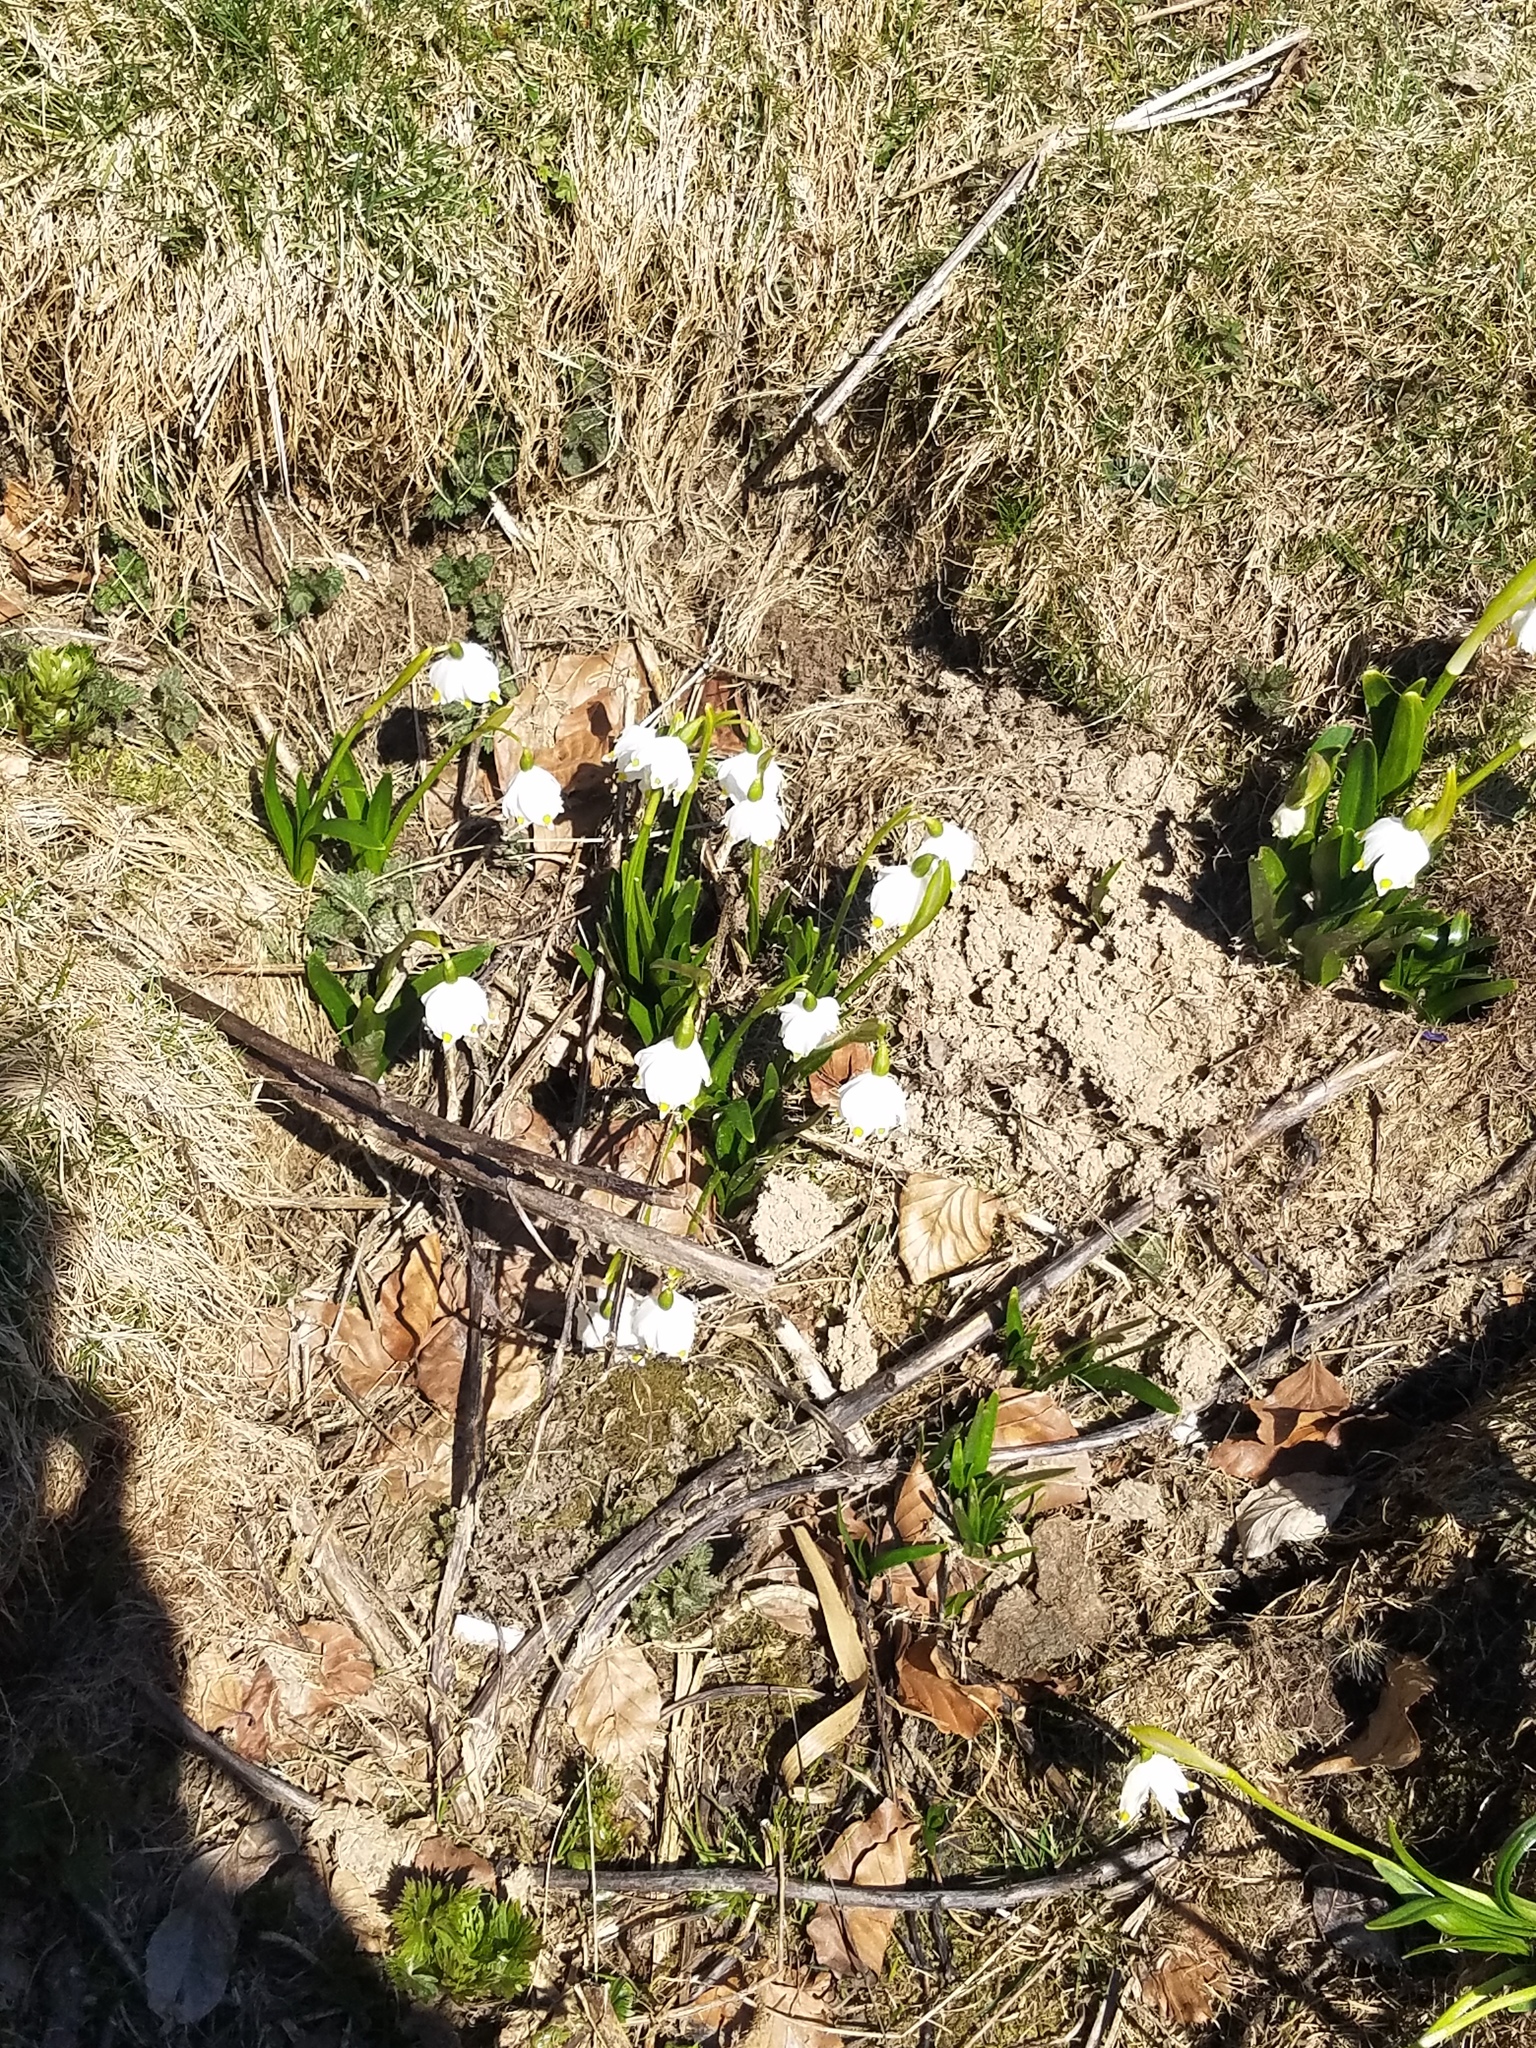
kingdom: Plantae
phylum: Tracheophyta
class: Liliopsida
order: Asparagales
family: Amaryllidaceae
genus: Leucojum
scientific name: Leucojum vernum
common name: Spring snowflake
